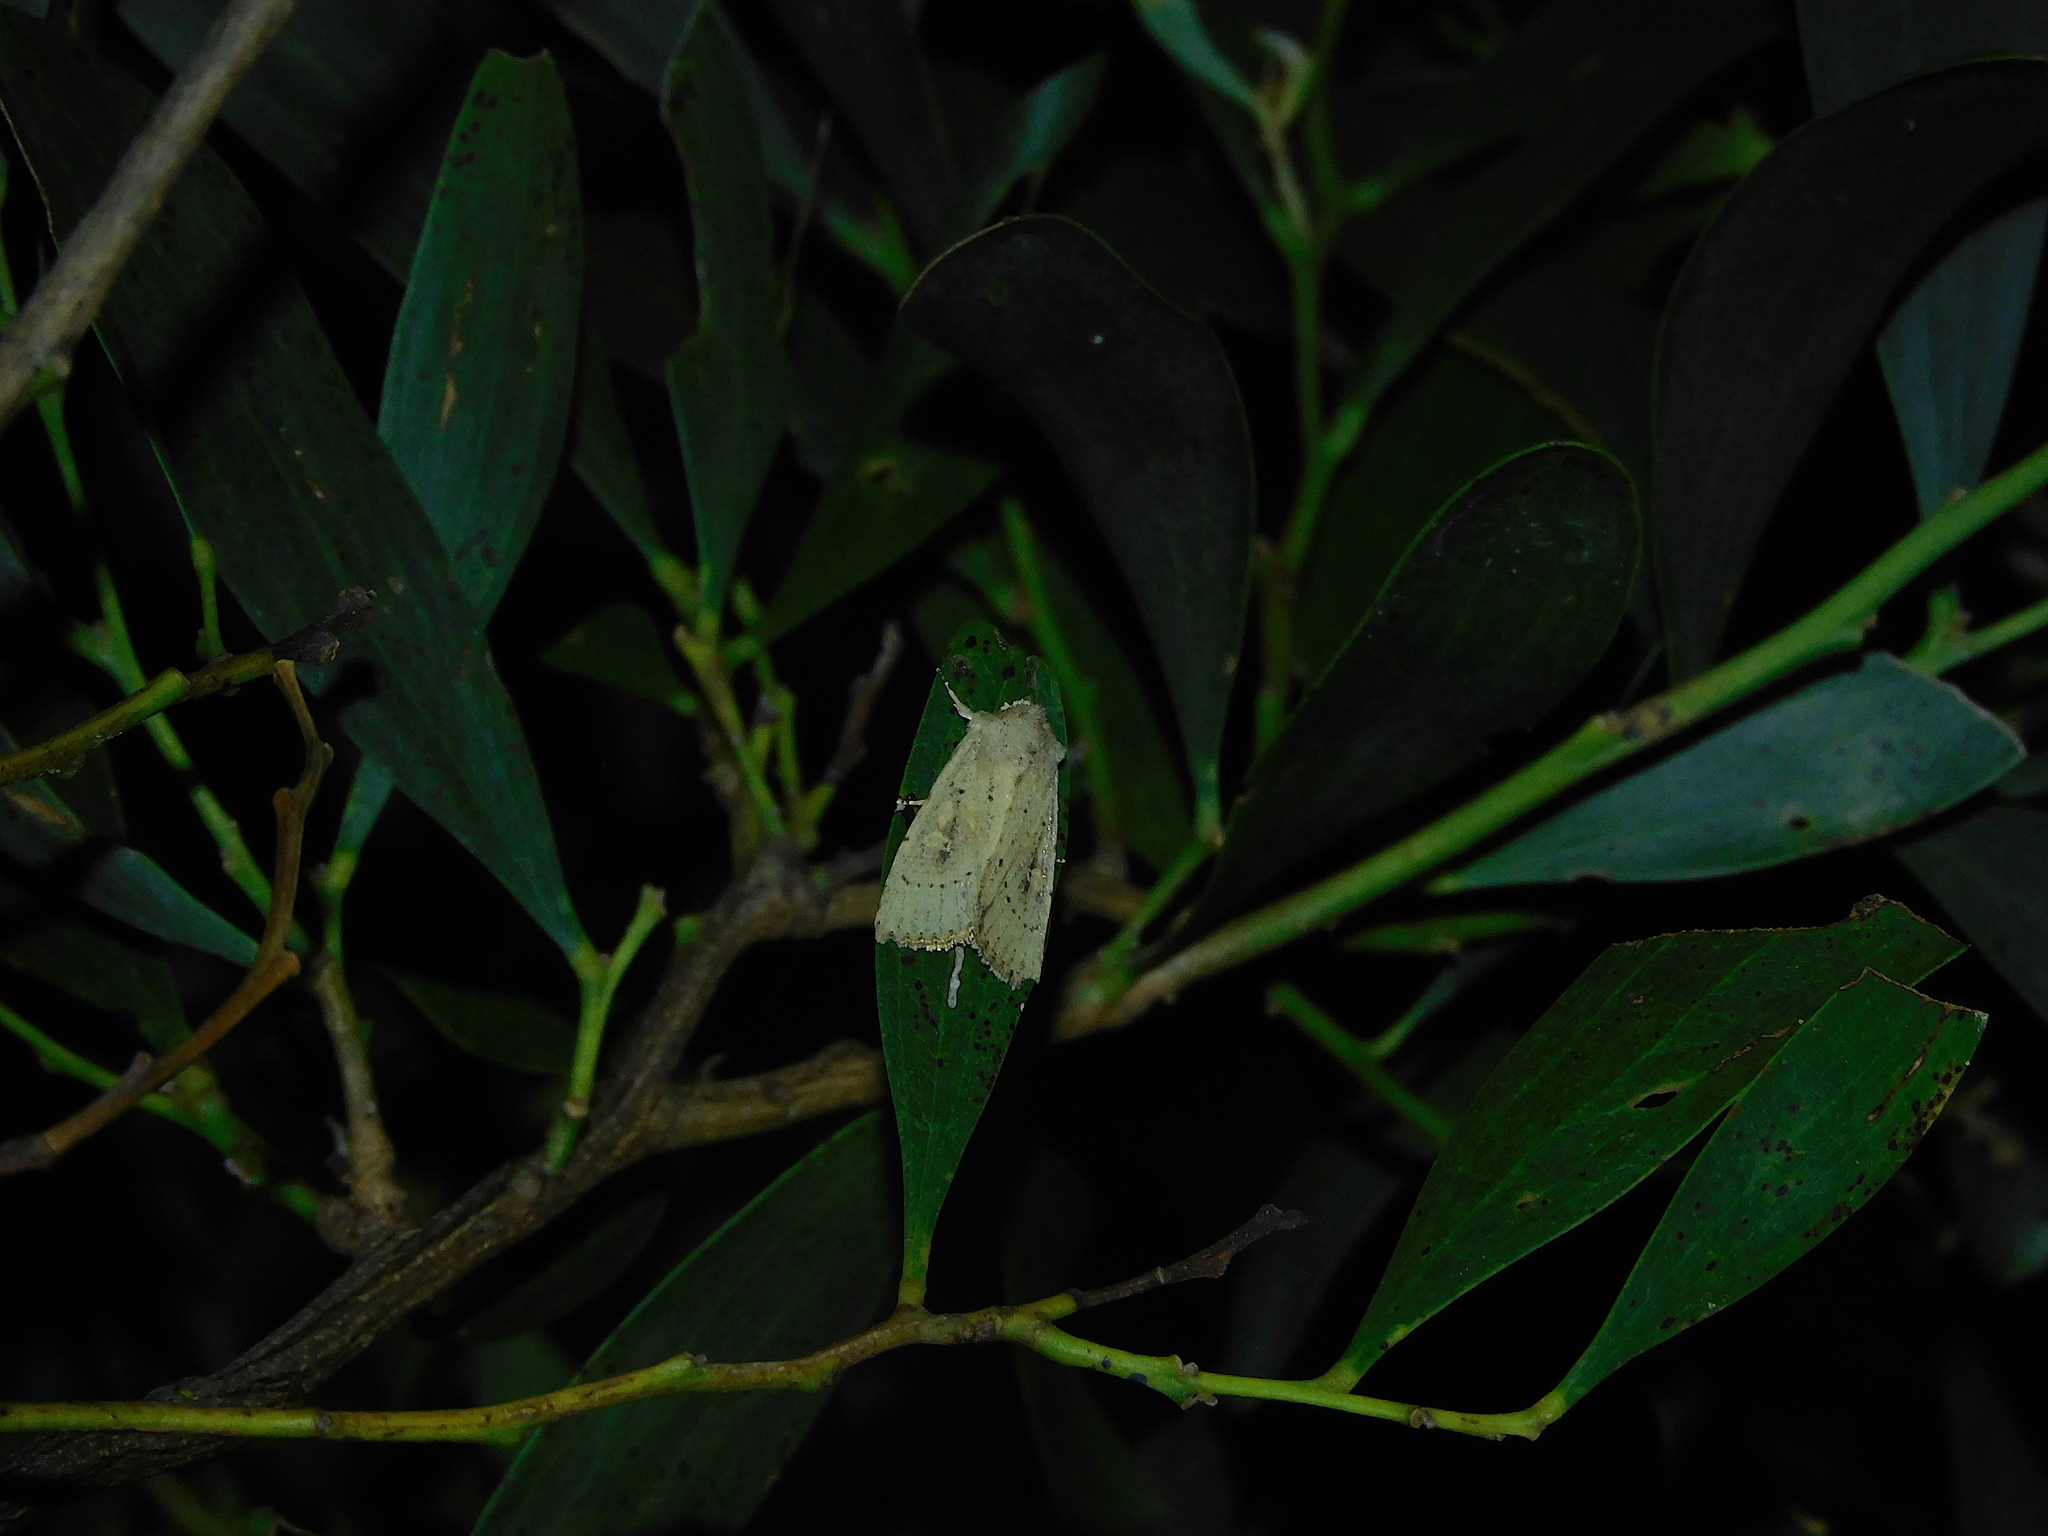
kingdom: Animalia
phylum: Arthropoda
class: Insecta
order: Lepidoptera
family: Noctuidae
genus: Cerastis
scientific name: Cerastis
